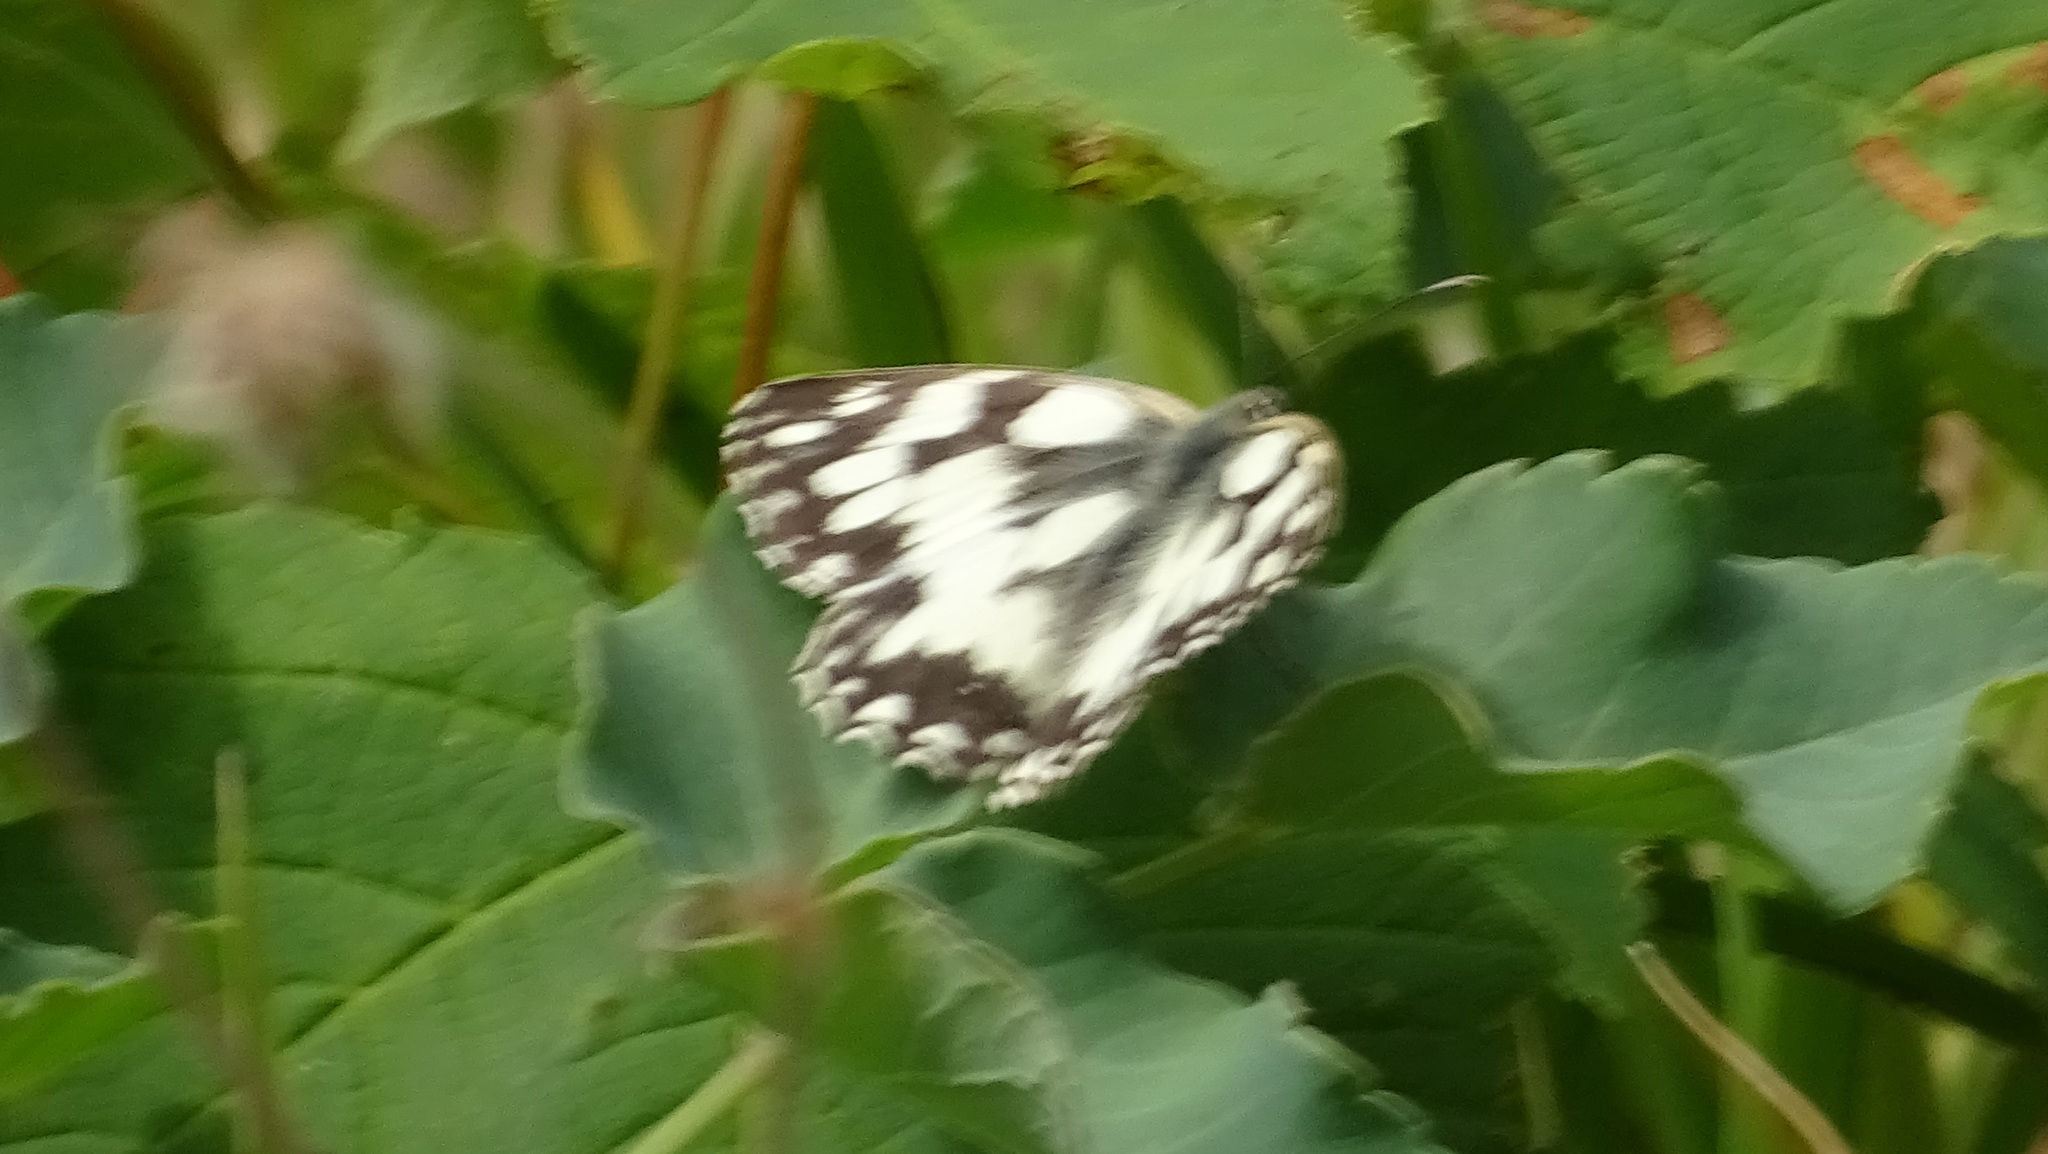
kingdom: Animalia
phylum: Arthropoda
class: Insecta
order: Lepidoptera
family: Nymphalidae
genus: Melanargia
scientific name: Melanargia galathea
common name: Marbled white
